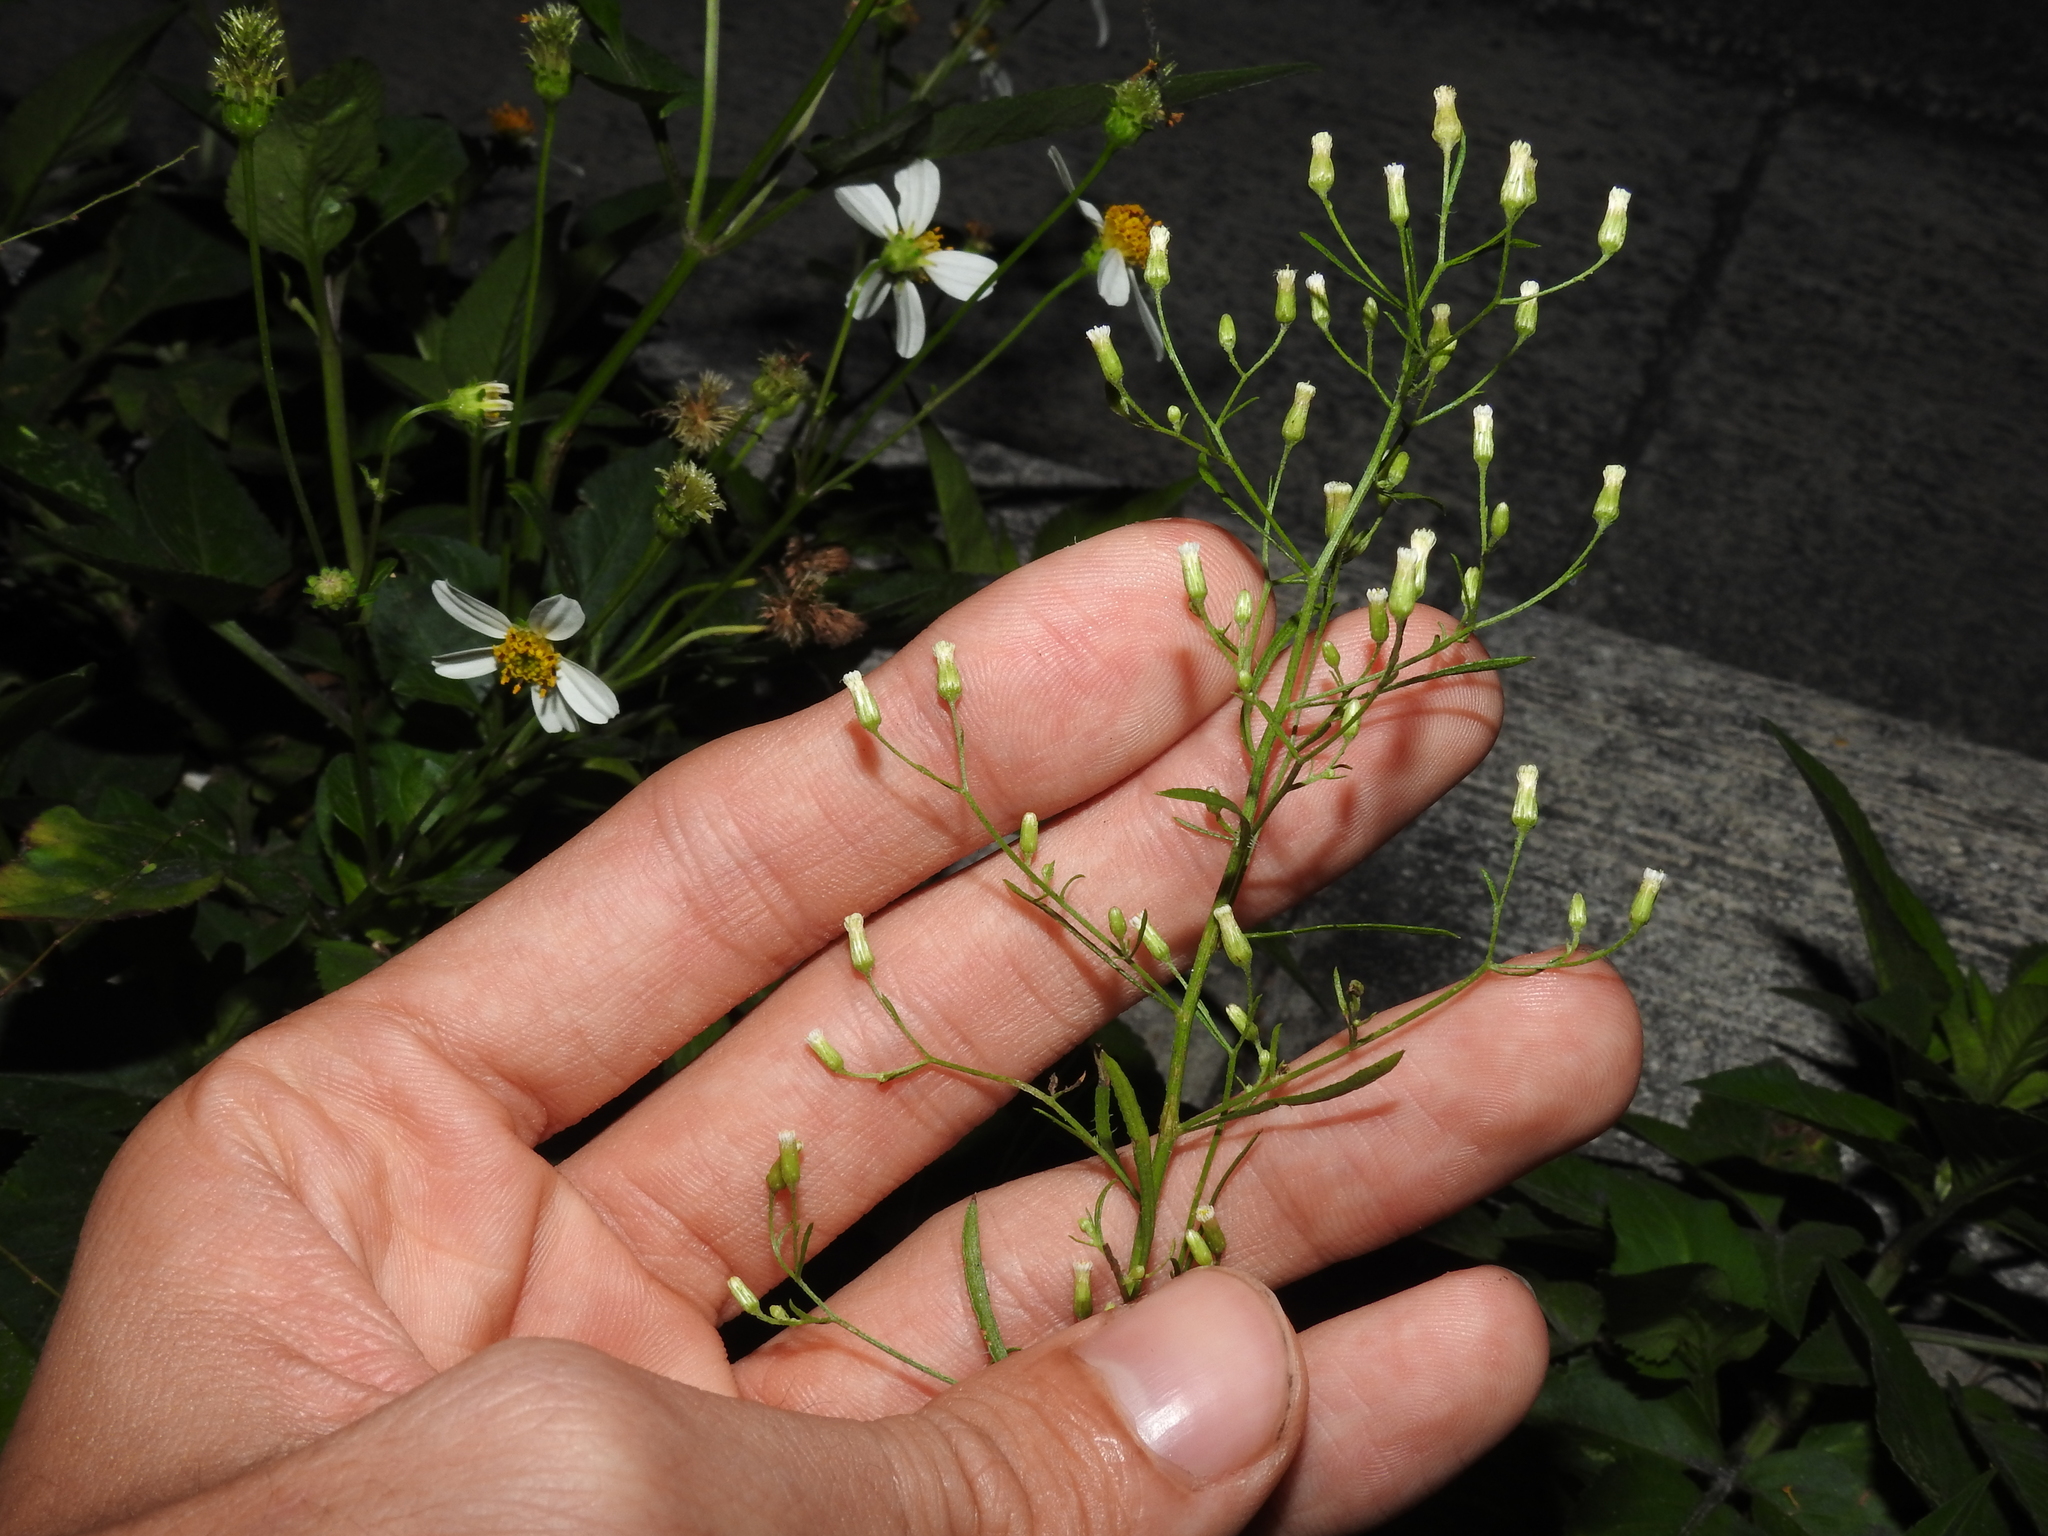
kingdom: Plantae
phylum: Tracheophyta
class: Magnoliopsida
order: Asterales
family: Asteraceae
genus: Erigeron
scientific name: Erigeron canadensis
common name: Canadian fleabane
